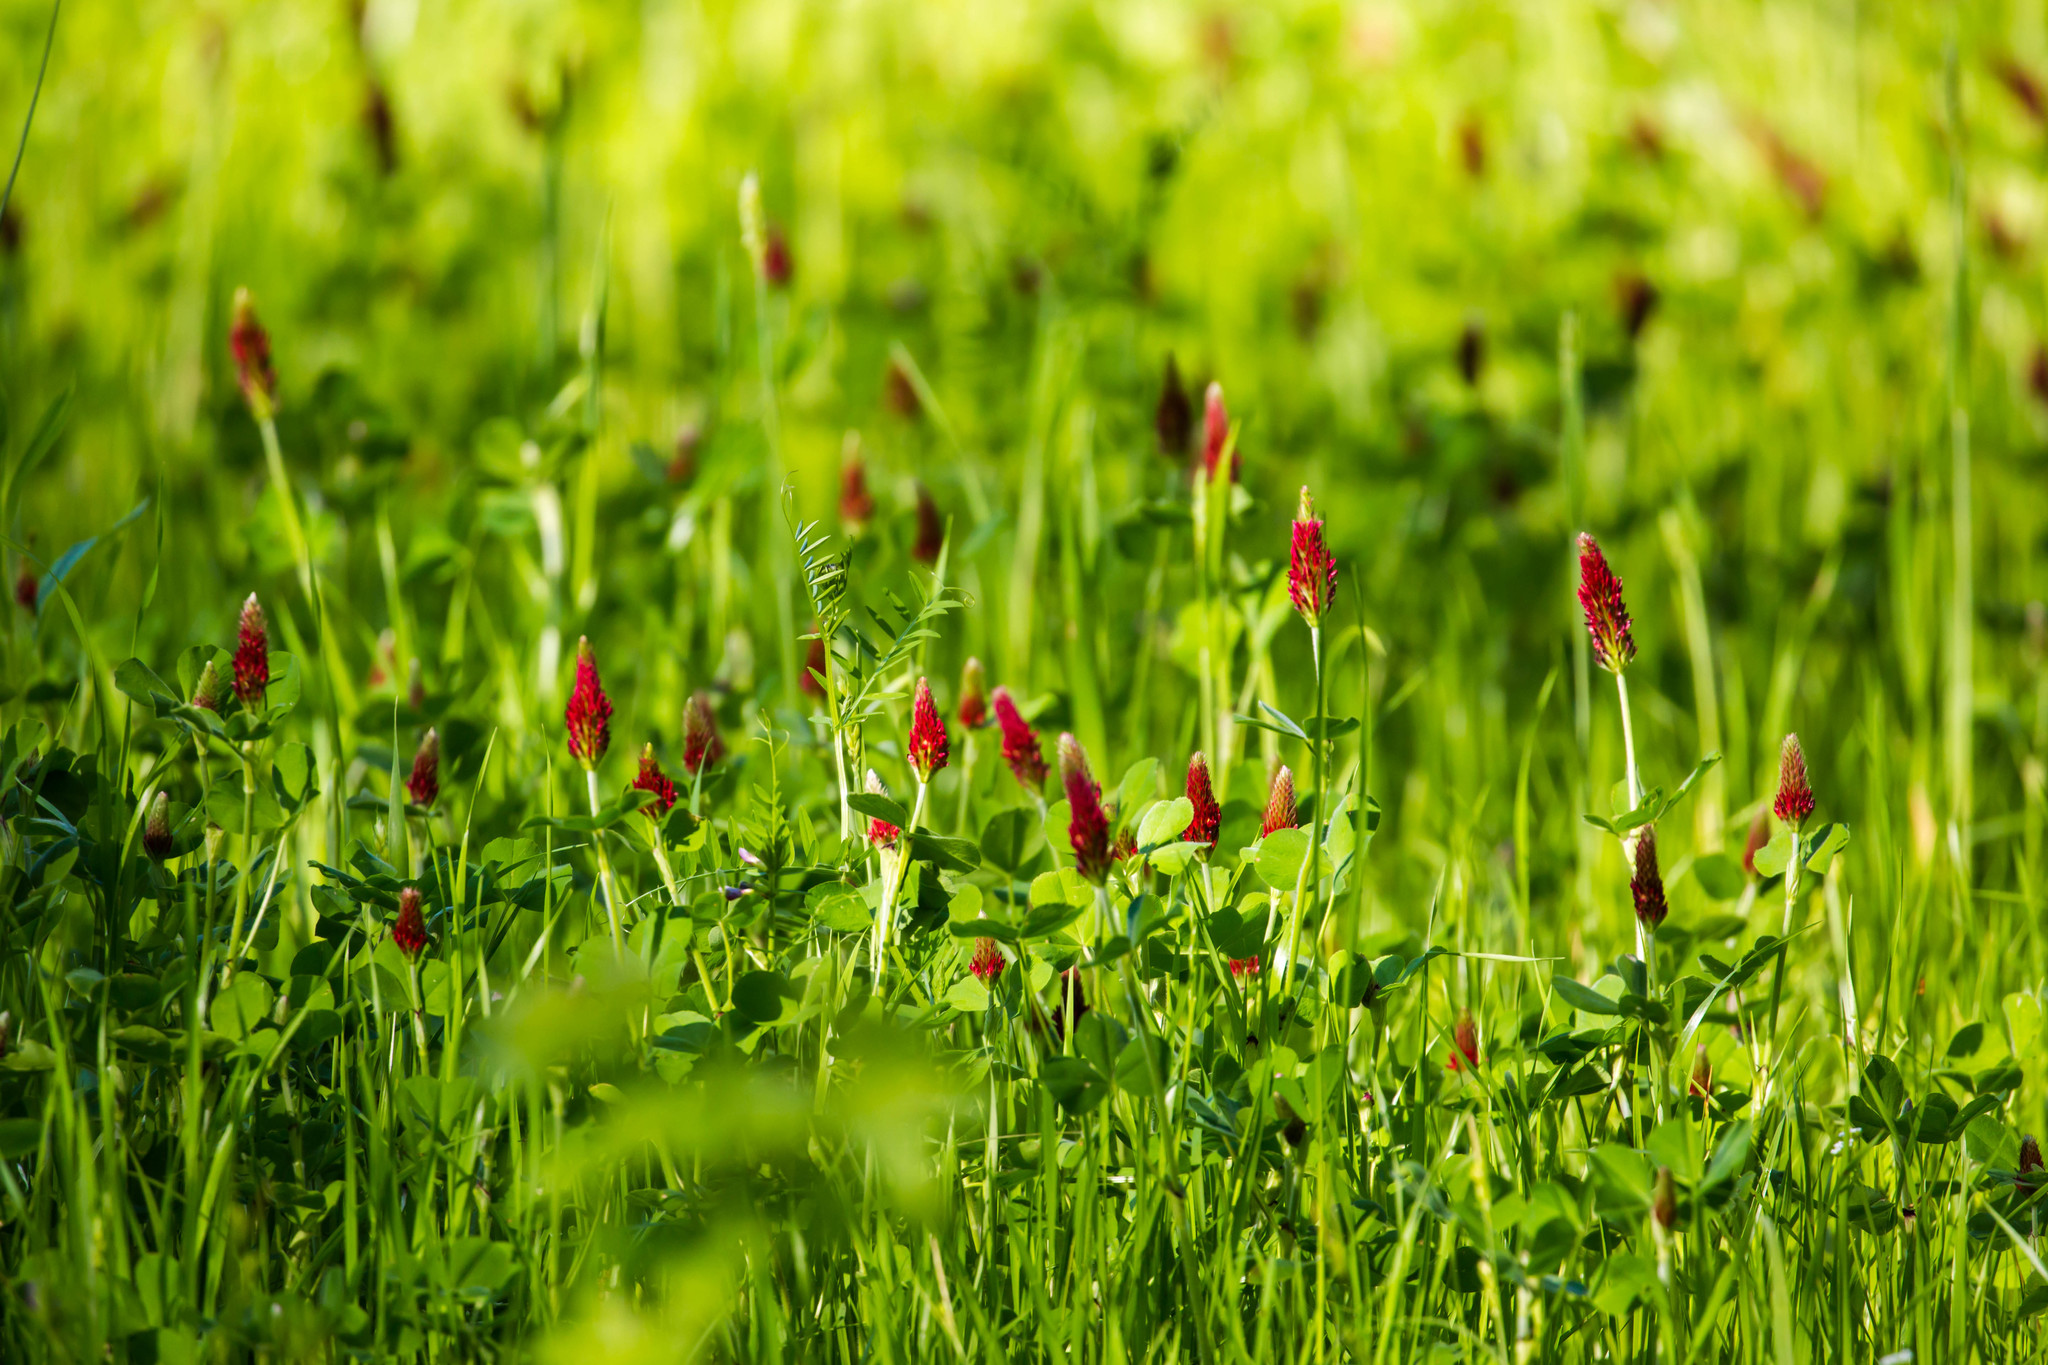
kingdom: Plantae
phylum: Tracheophyta
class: Magnoliopsida
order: Fabales
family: Fabaceae
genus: Trifolium
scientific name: Trifolium incarnatum
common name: Crimson clover
